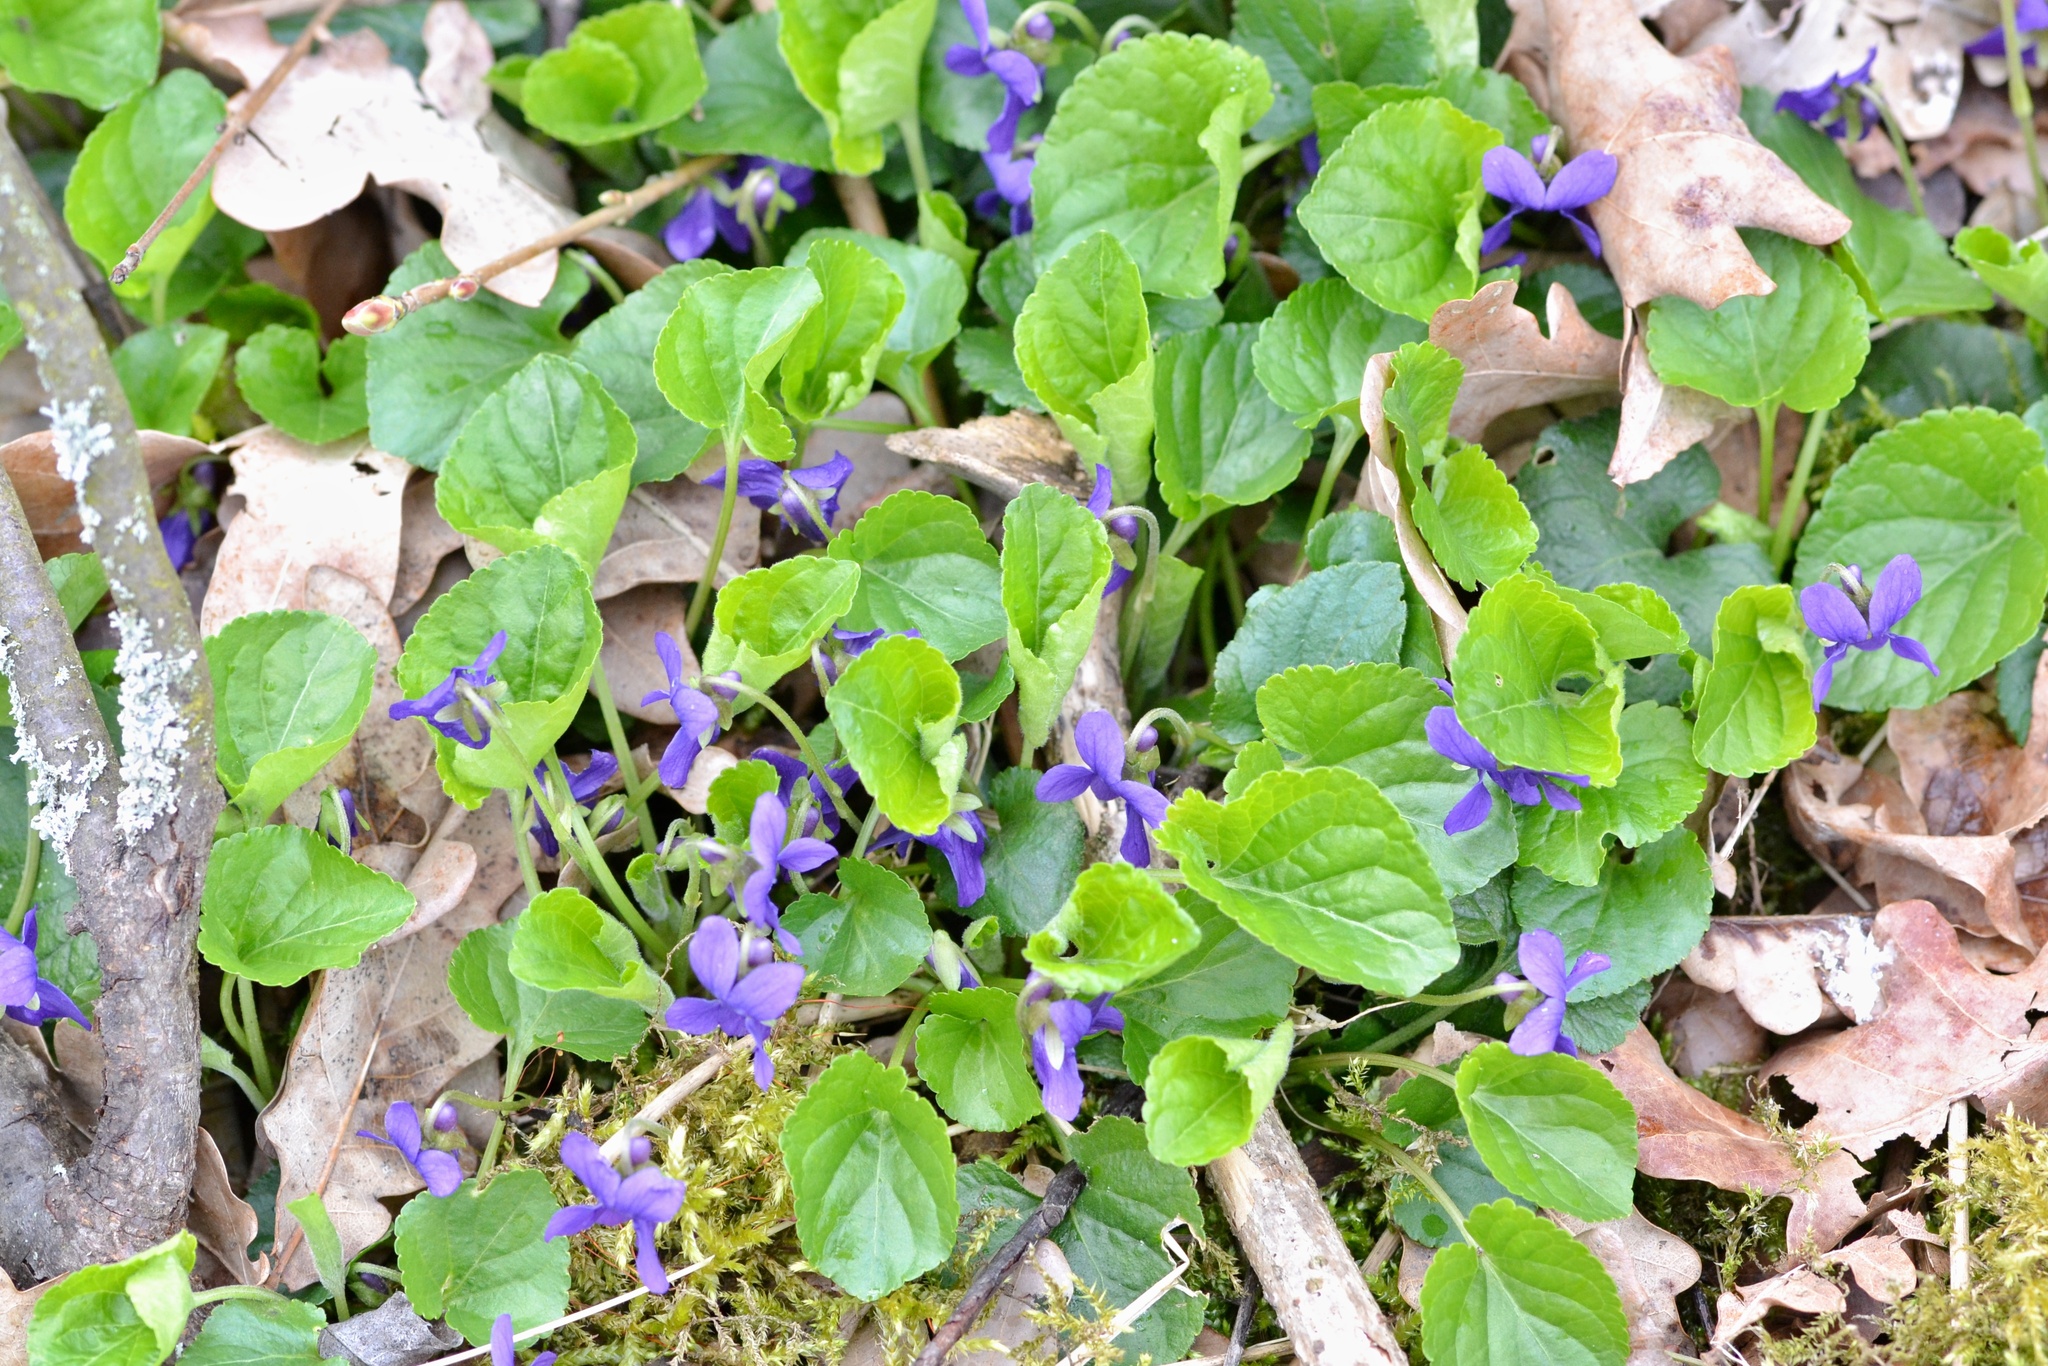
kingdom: Plantae
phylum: Tracheophyta
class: Magnoliopsida
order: Malpighiales
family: Violaceae
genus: Viola
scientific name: Viola odorata
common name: Sweet violet
